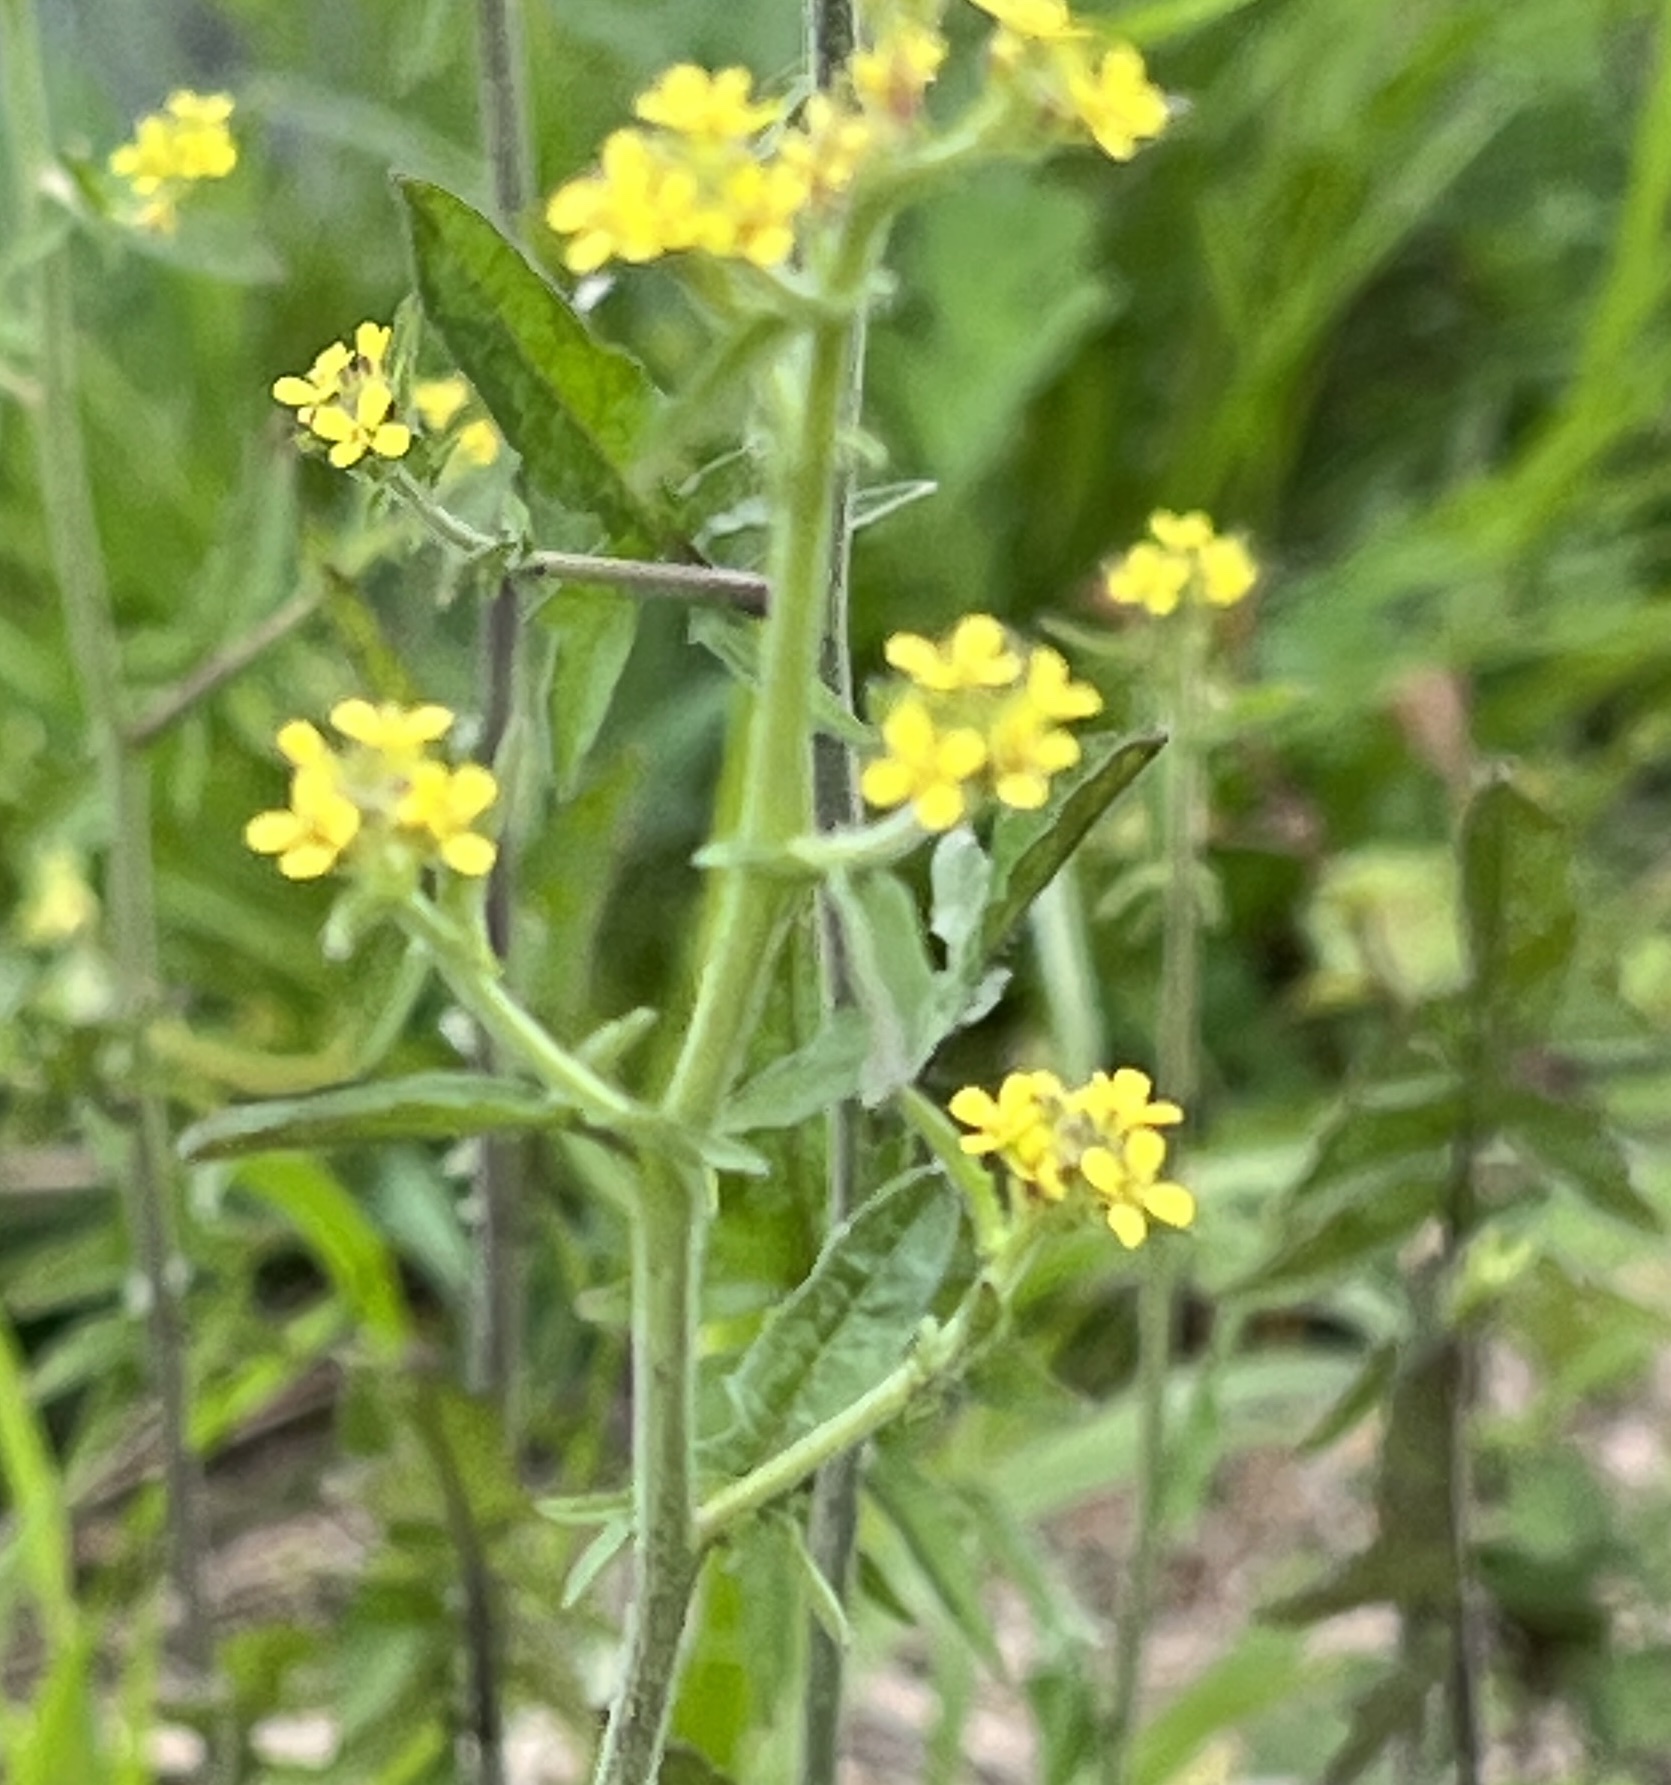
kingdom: Plantae
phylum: Tracheophyta
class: Magnoliopsida
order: Brassicales
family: Brassicaceae
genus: Sisymbrium
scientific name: Sisymbrium officinale
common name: Hedge mustard
